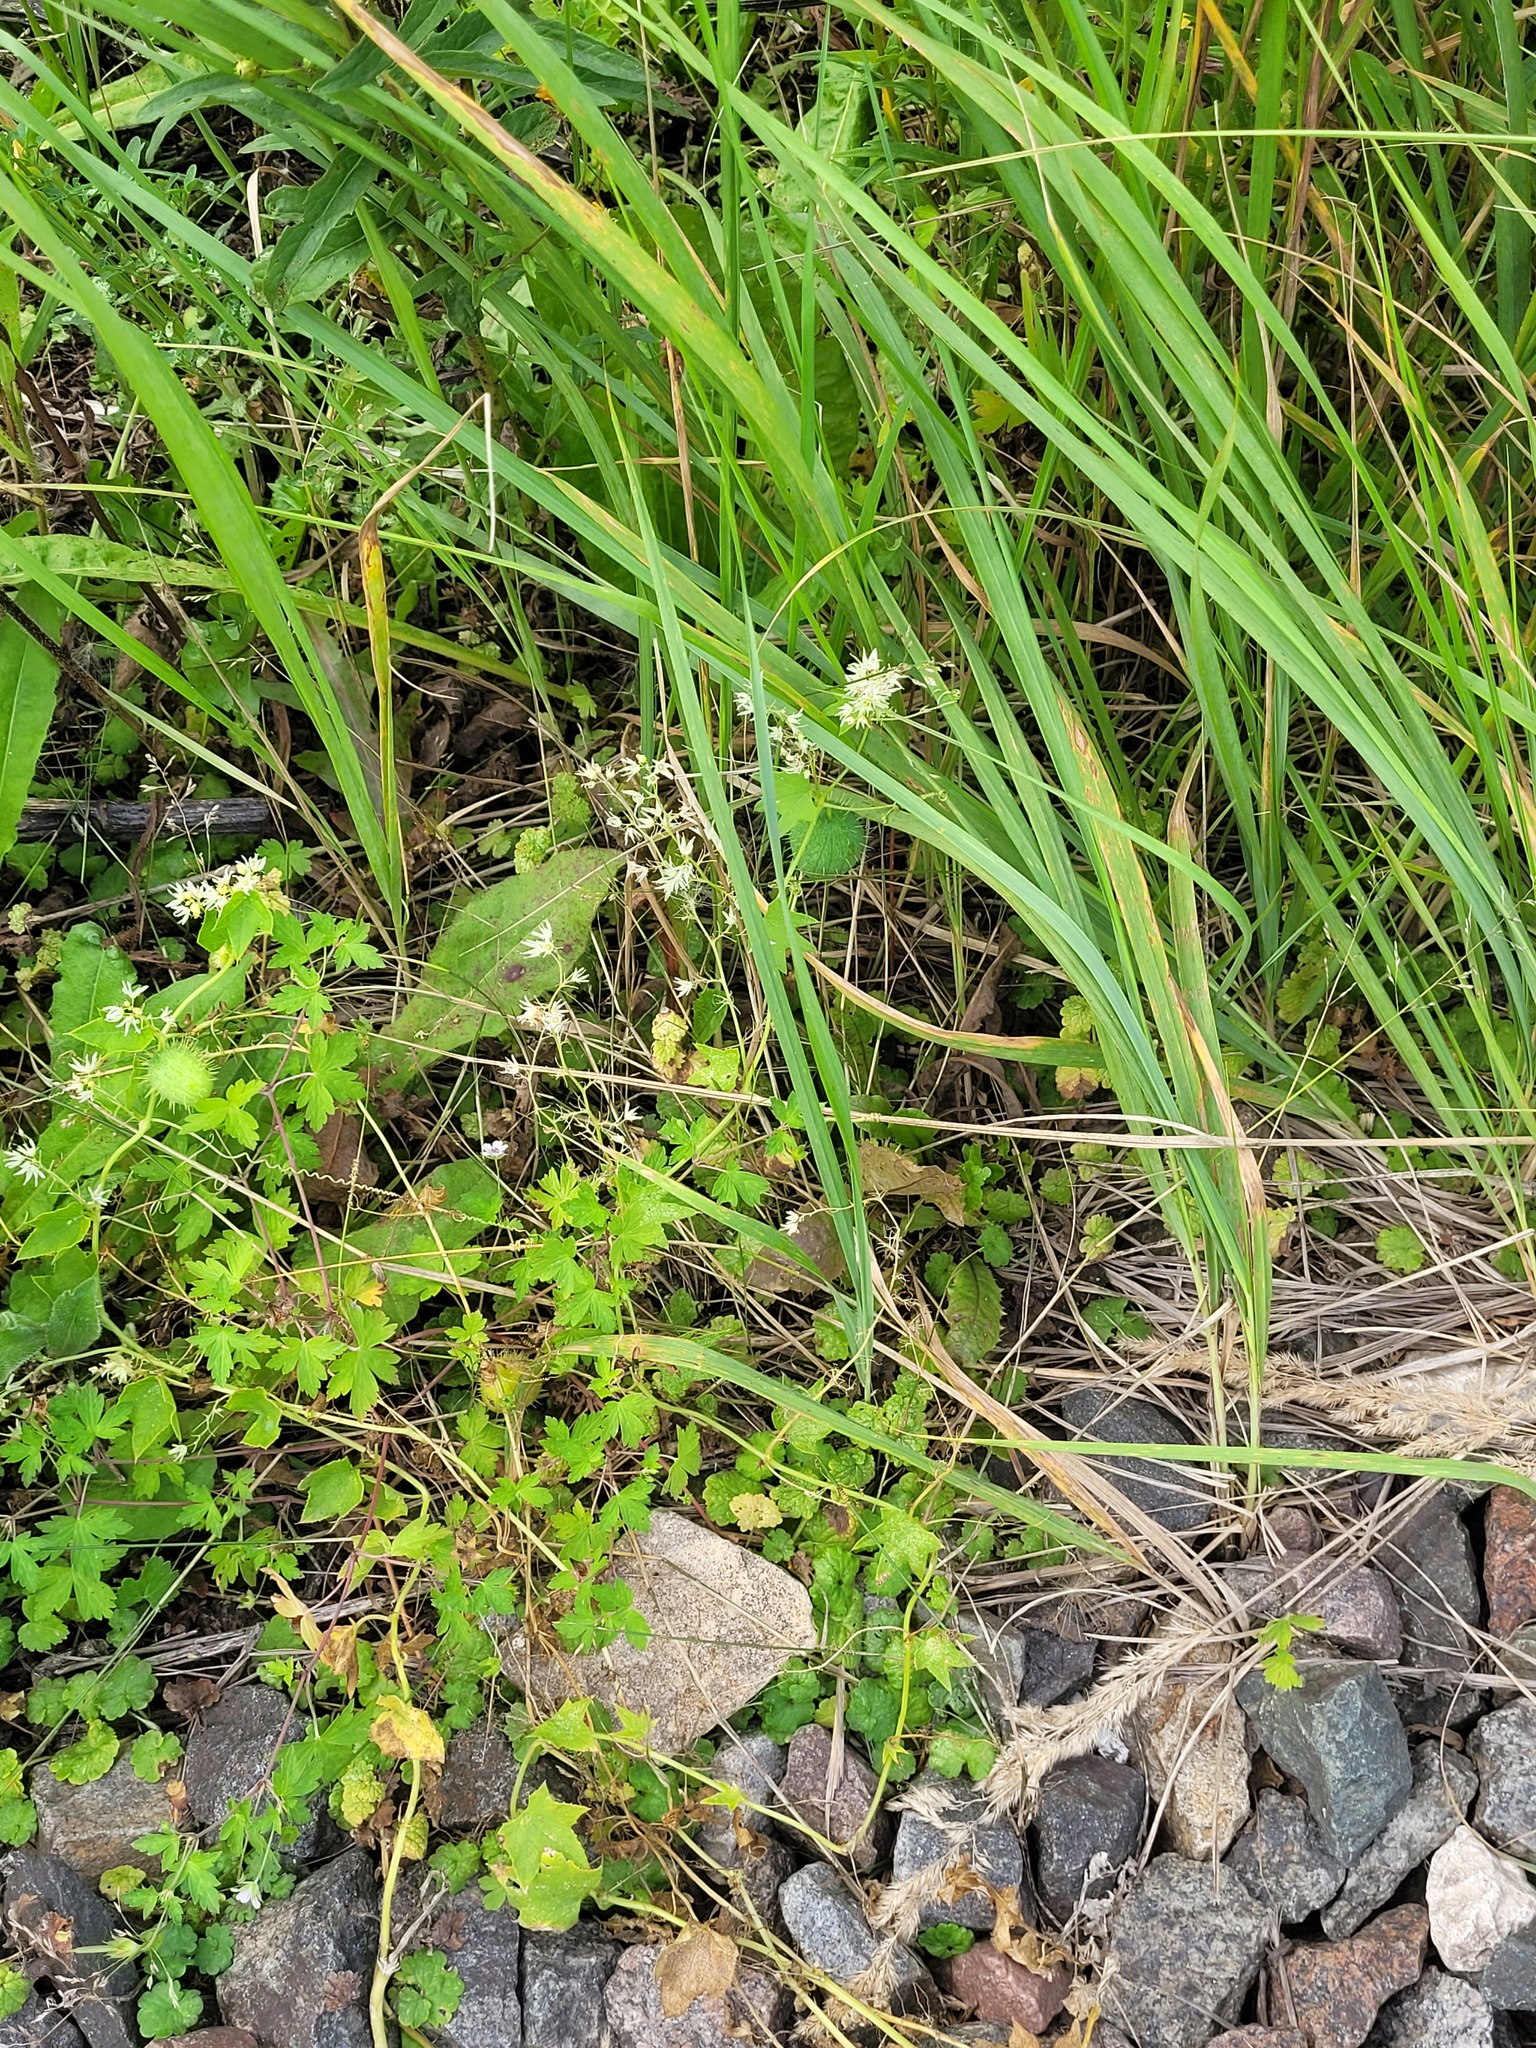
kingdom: Plantae
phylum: Tracheophyta
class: Magnoliopsida
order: Cucurbitales
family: Cucurbitaceae
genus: Echinocystis
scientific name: Echinocystis lobata
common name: Wild cucumber
